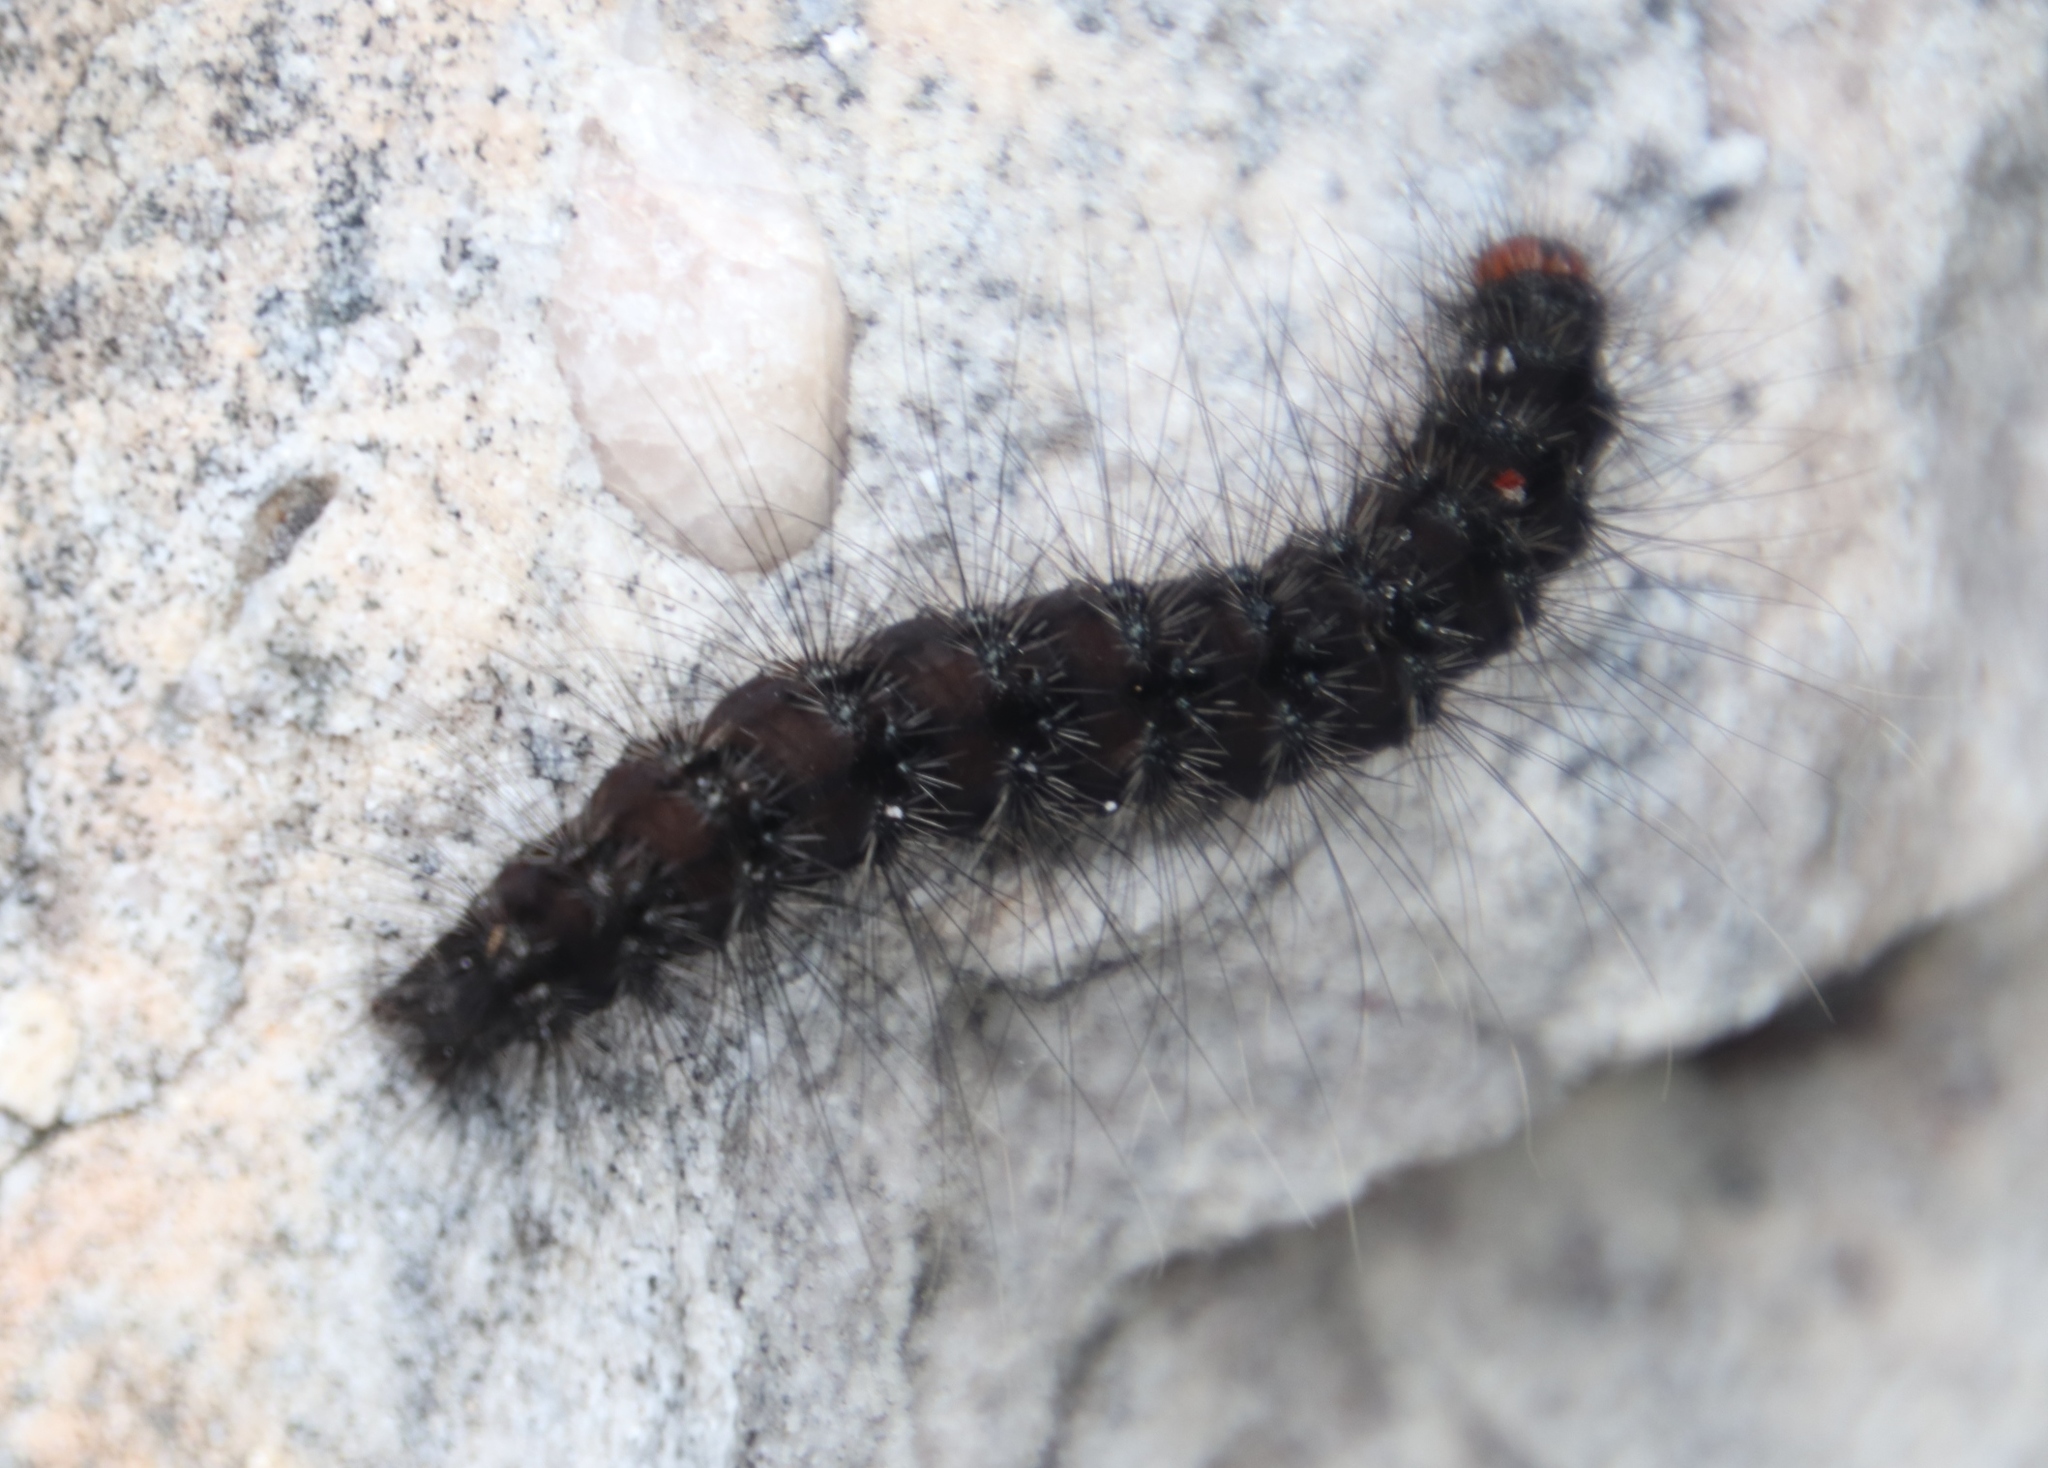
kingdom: Animalia
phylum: Arthropoda
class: Insecta
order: Lepidoptera
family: Erebidae
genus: Thyretes
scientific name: Thyretes hippotes
